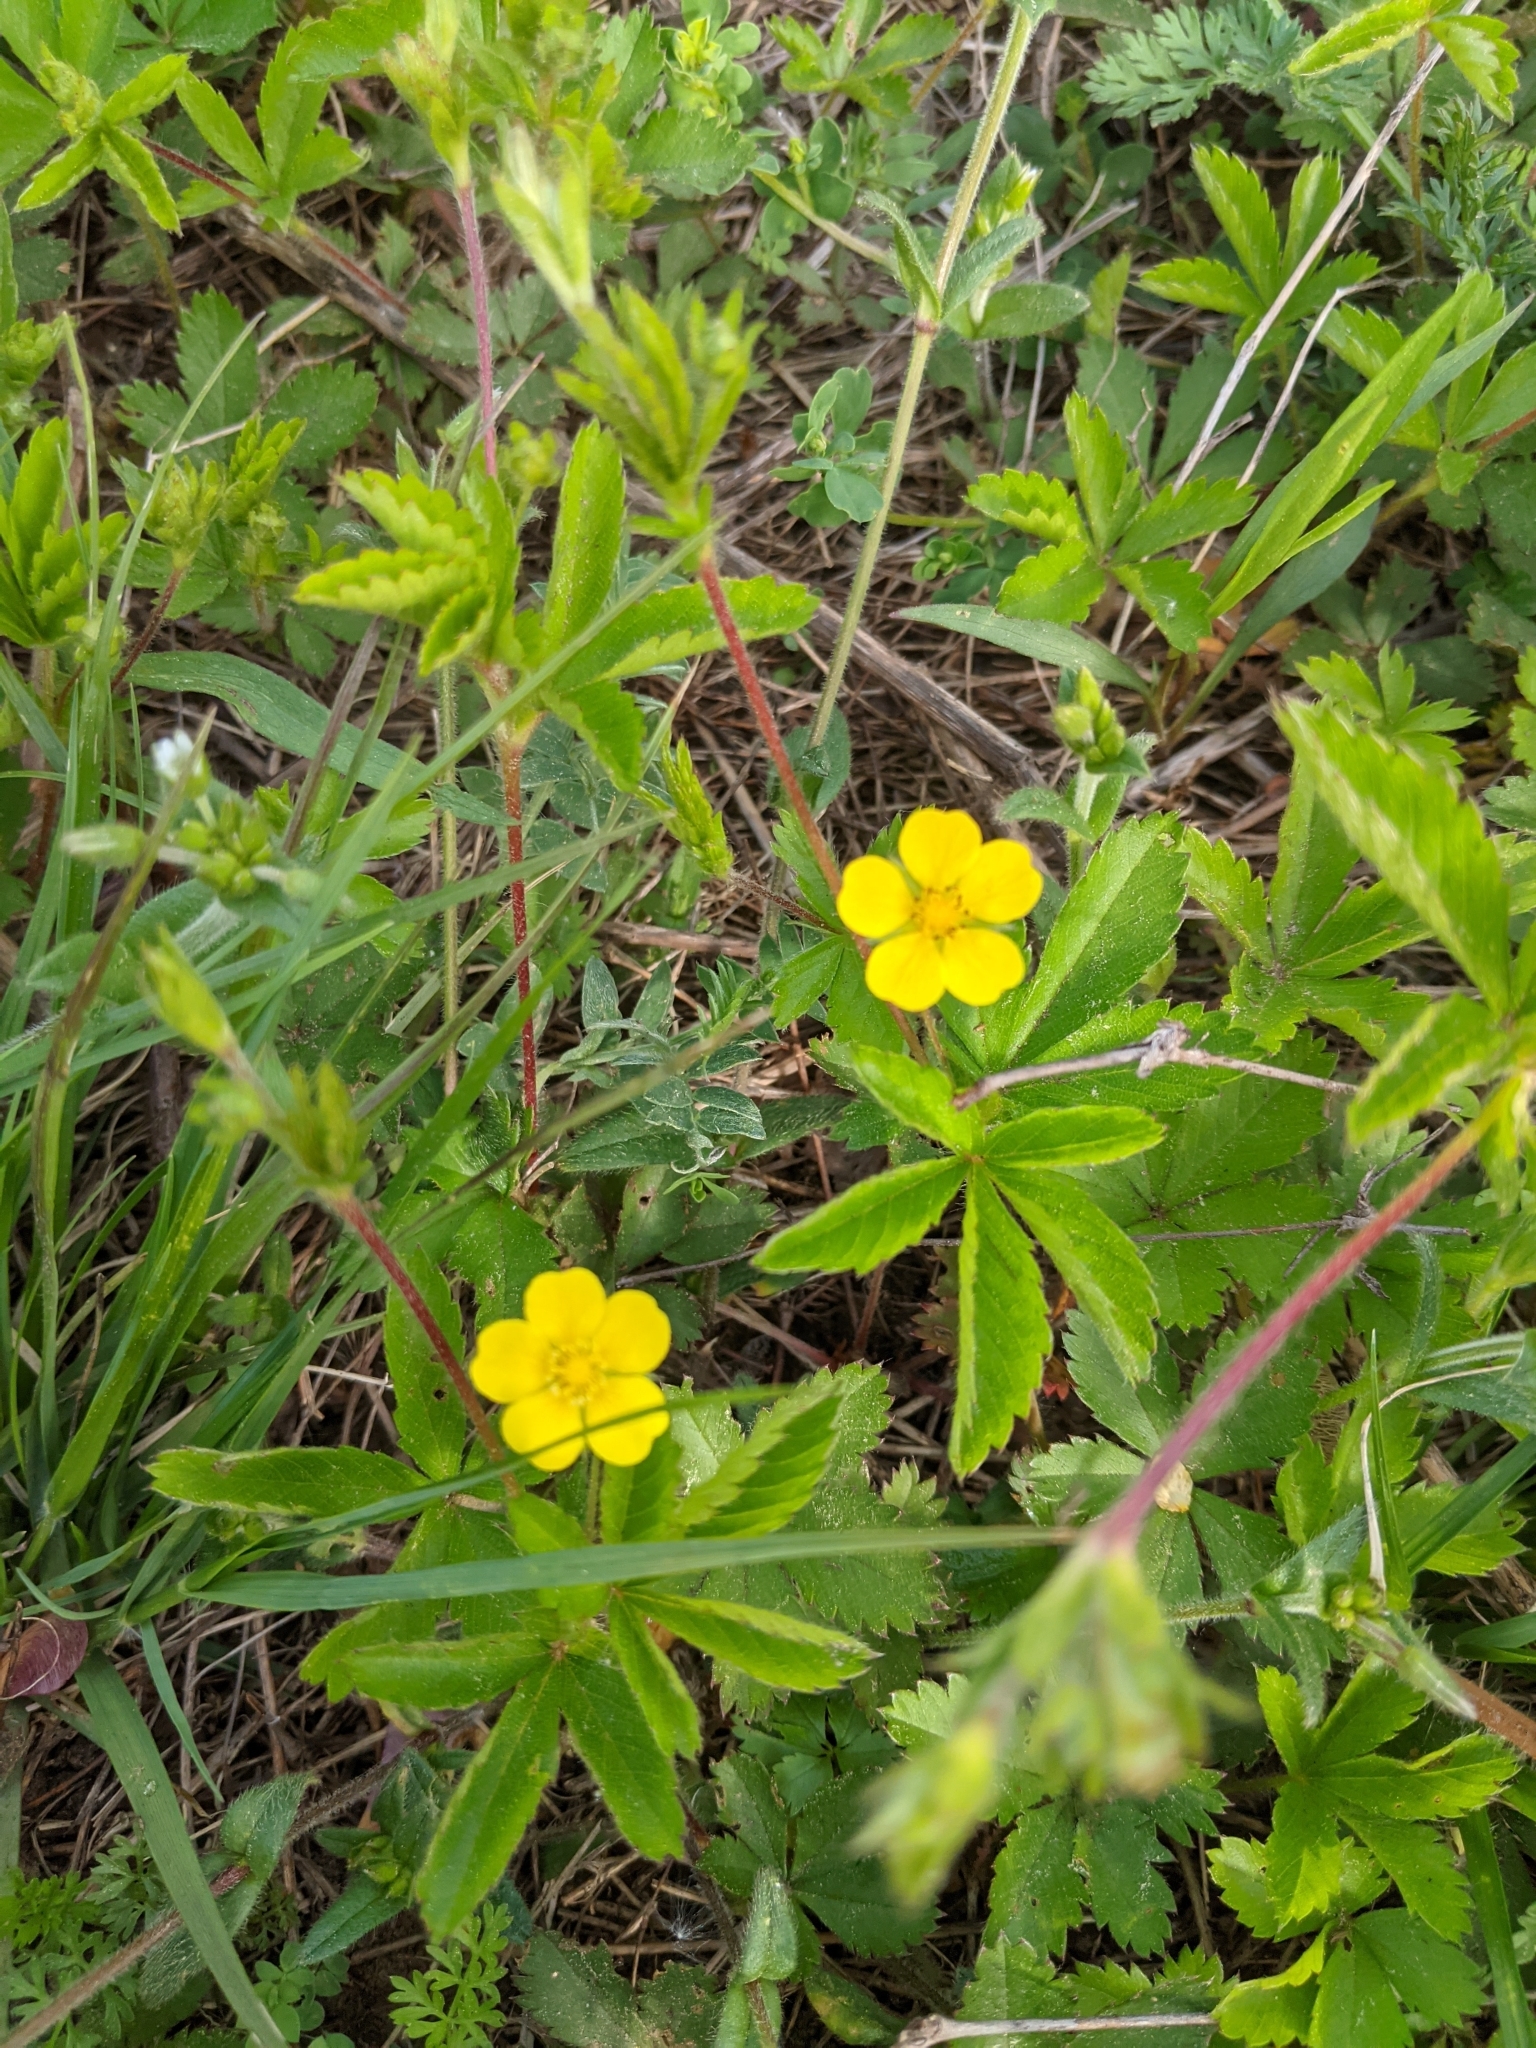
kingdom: Plantae
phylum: Tracheophyta
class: Magnoliopsida
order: Rosales
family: Rosaceae
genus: Potentilla
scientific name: Potentilla simplex
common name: Old field cinquefoil
